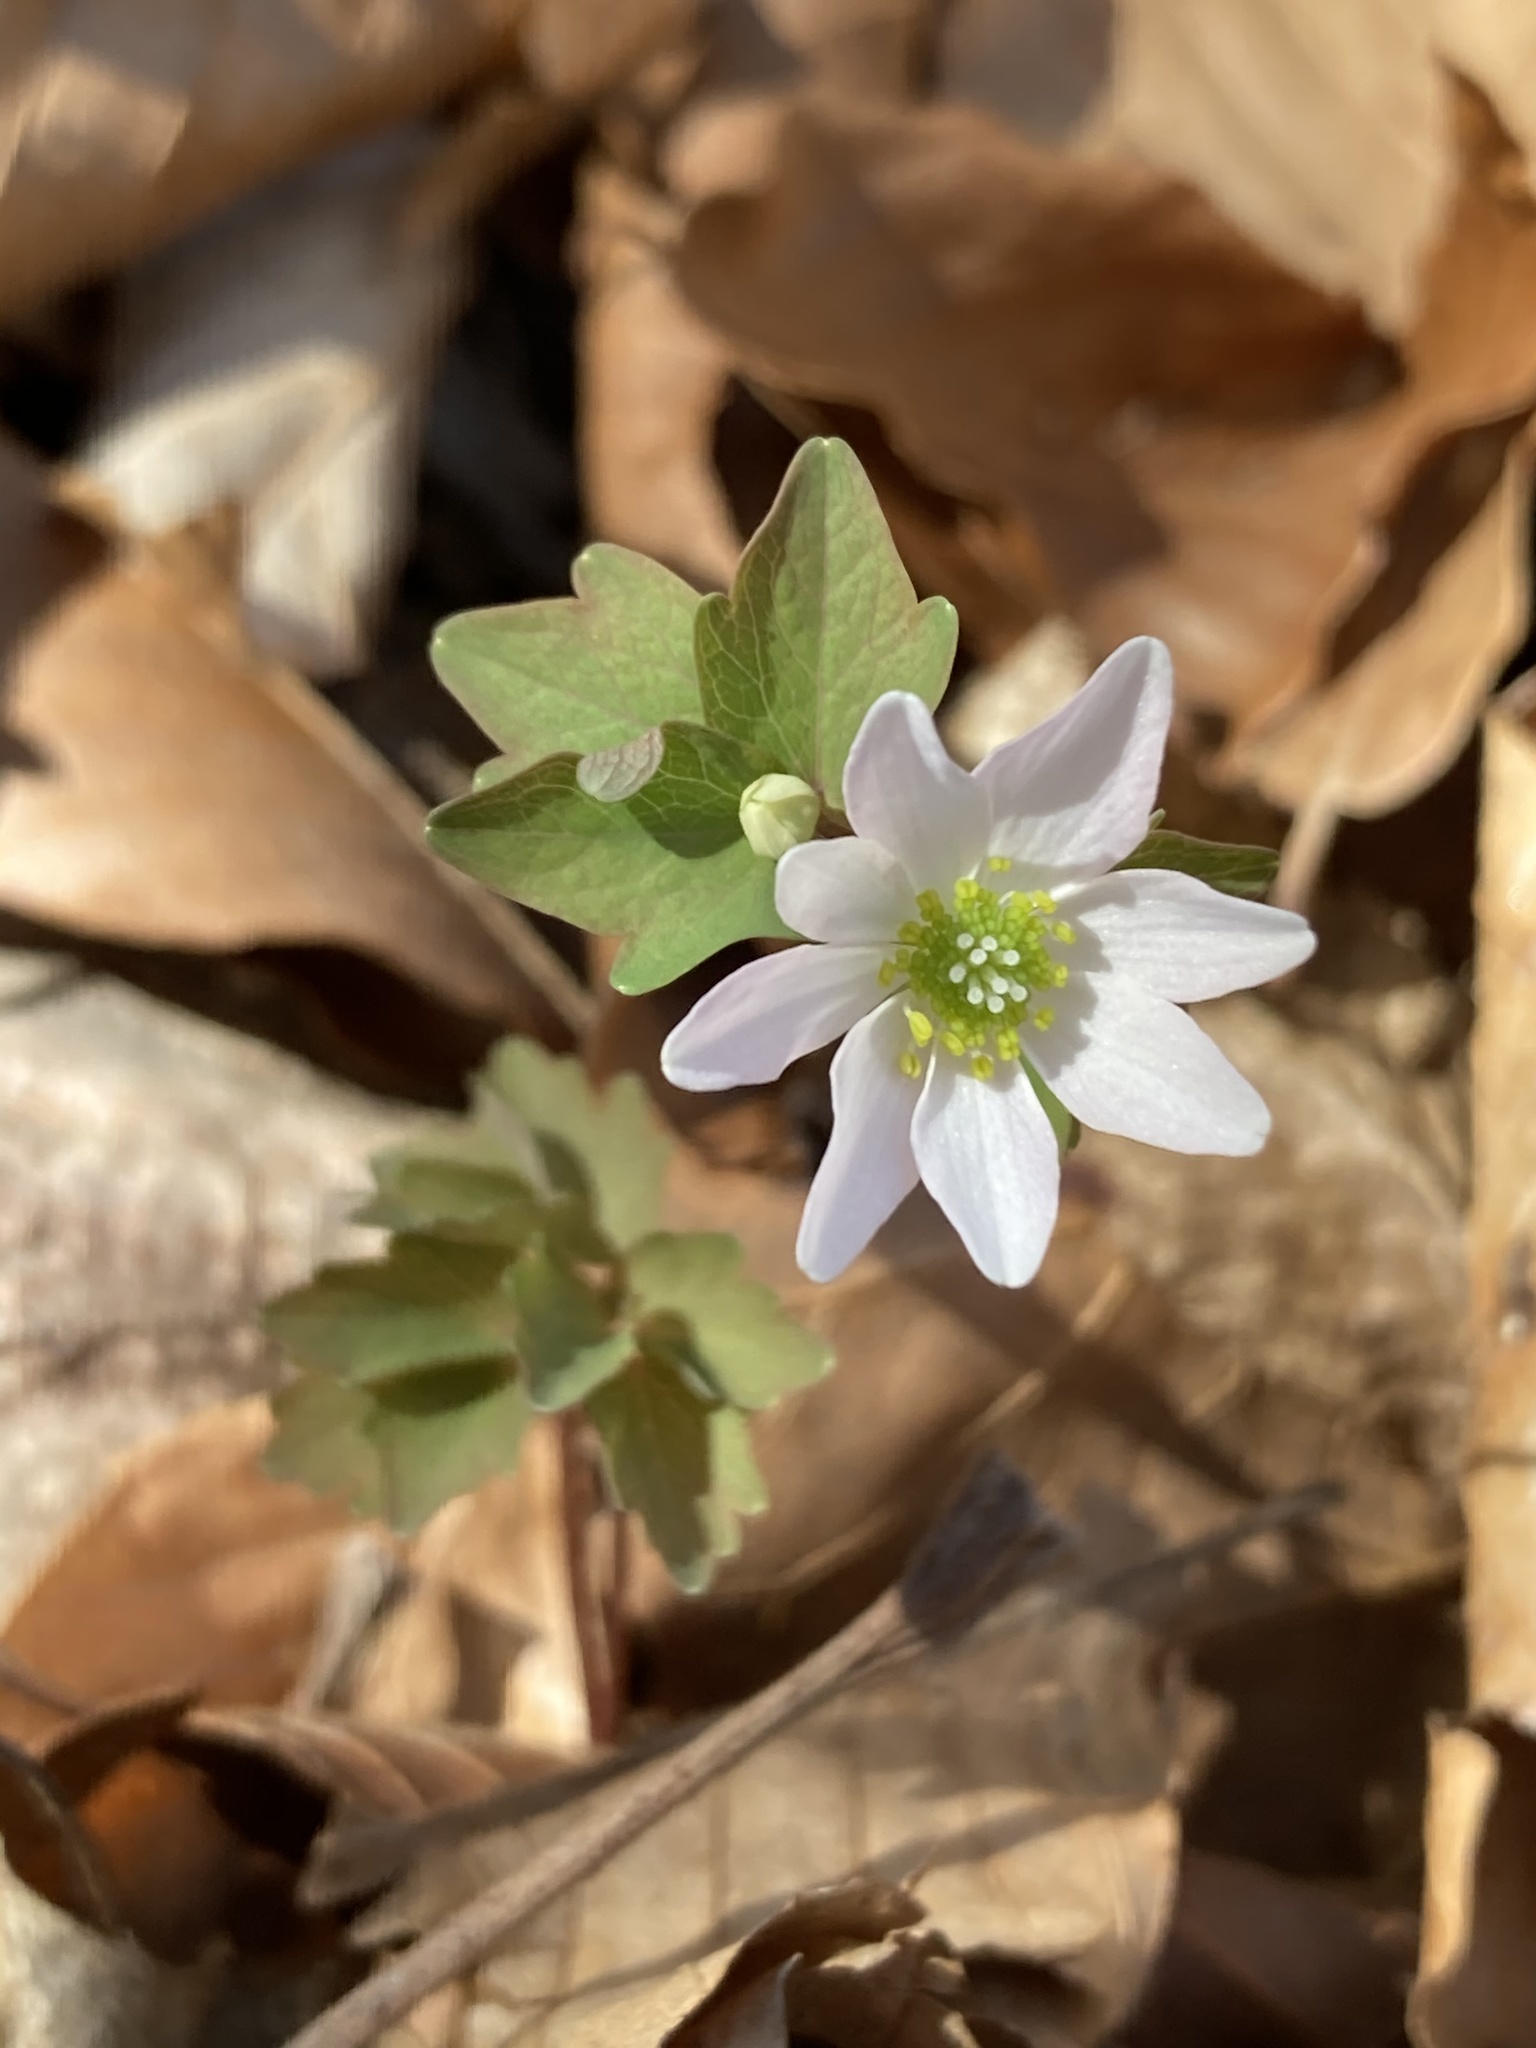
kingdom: Plantae
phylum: Tracheophyta
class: Magnoliopsida
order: Ranunculales
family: Ranunculaceae
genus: Thalictrum
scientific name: Thalictrum thalictroides
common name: Rue-anemone
